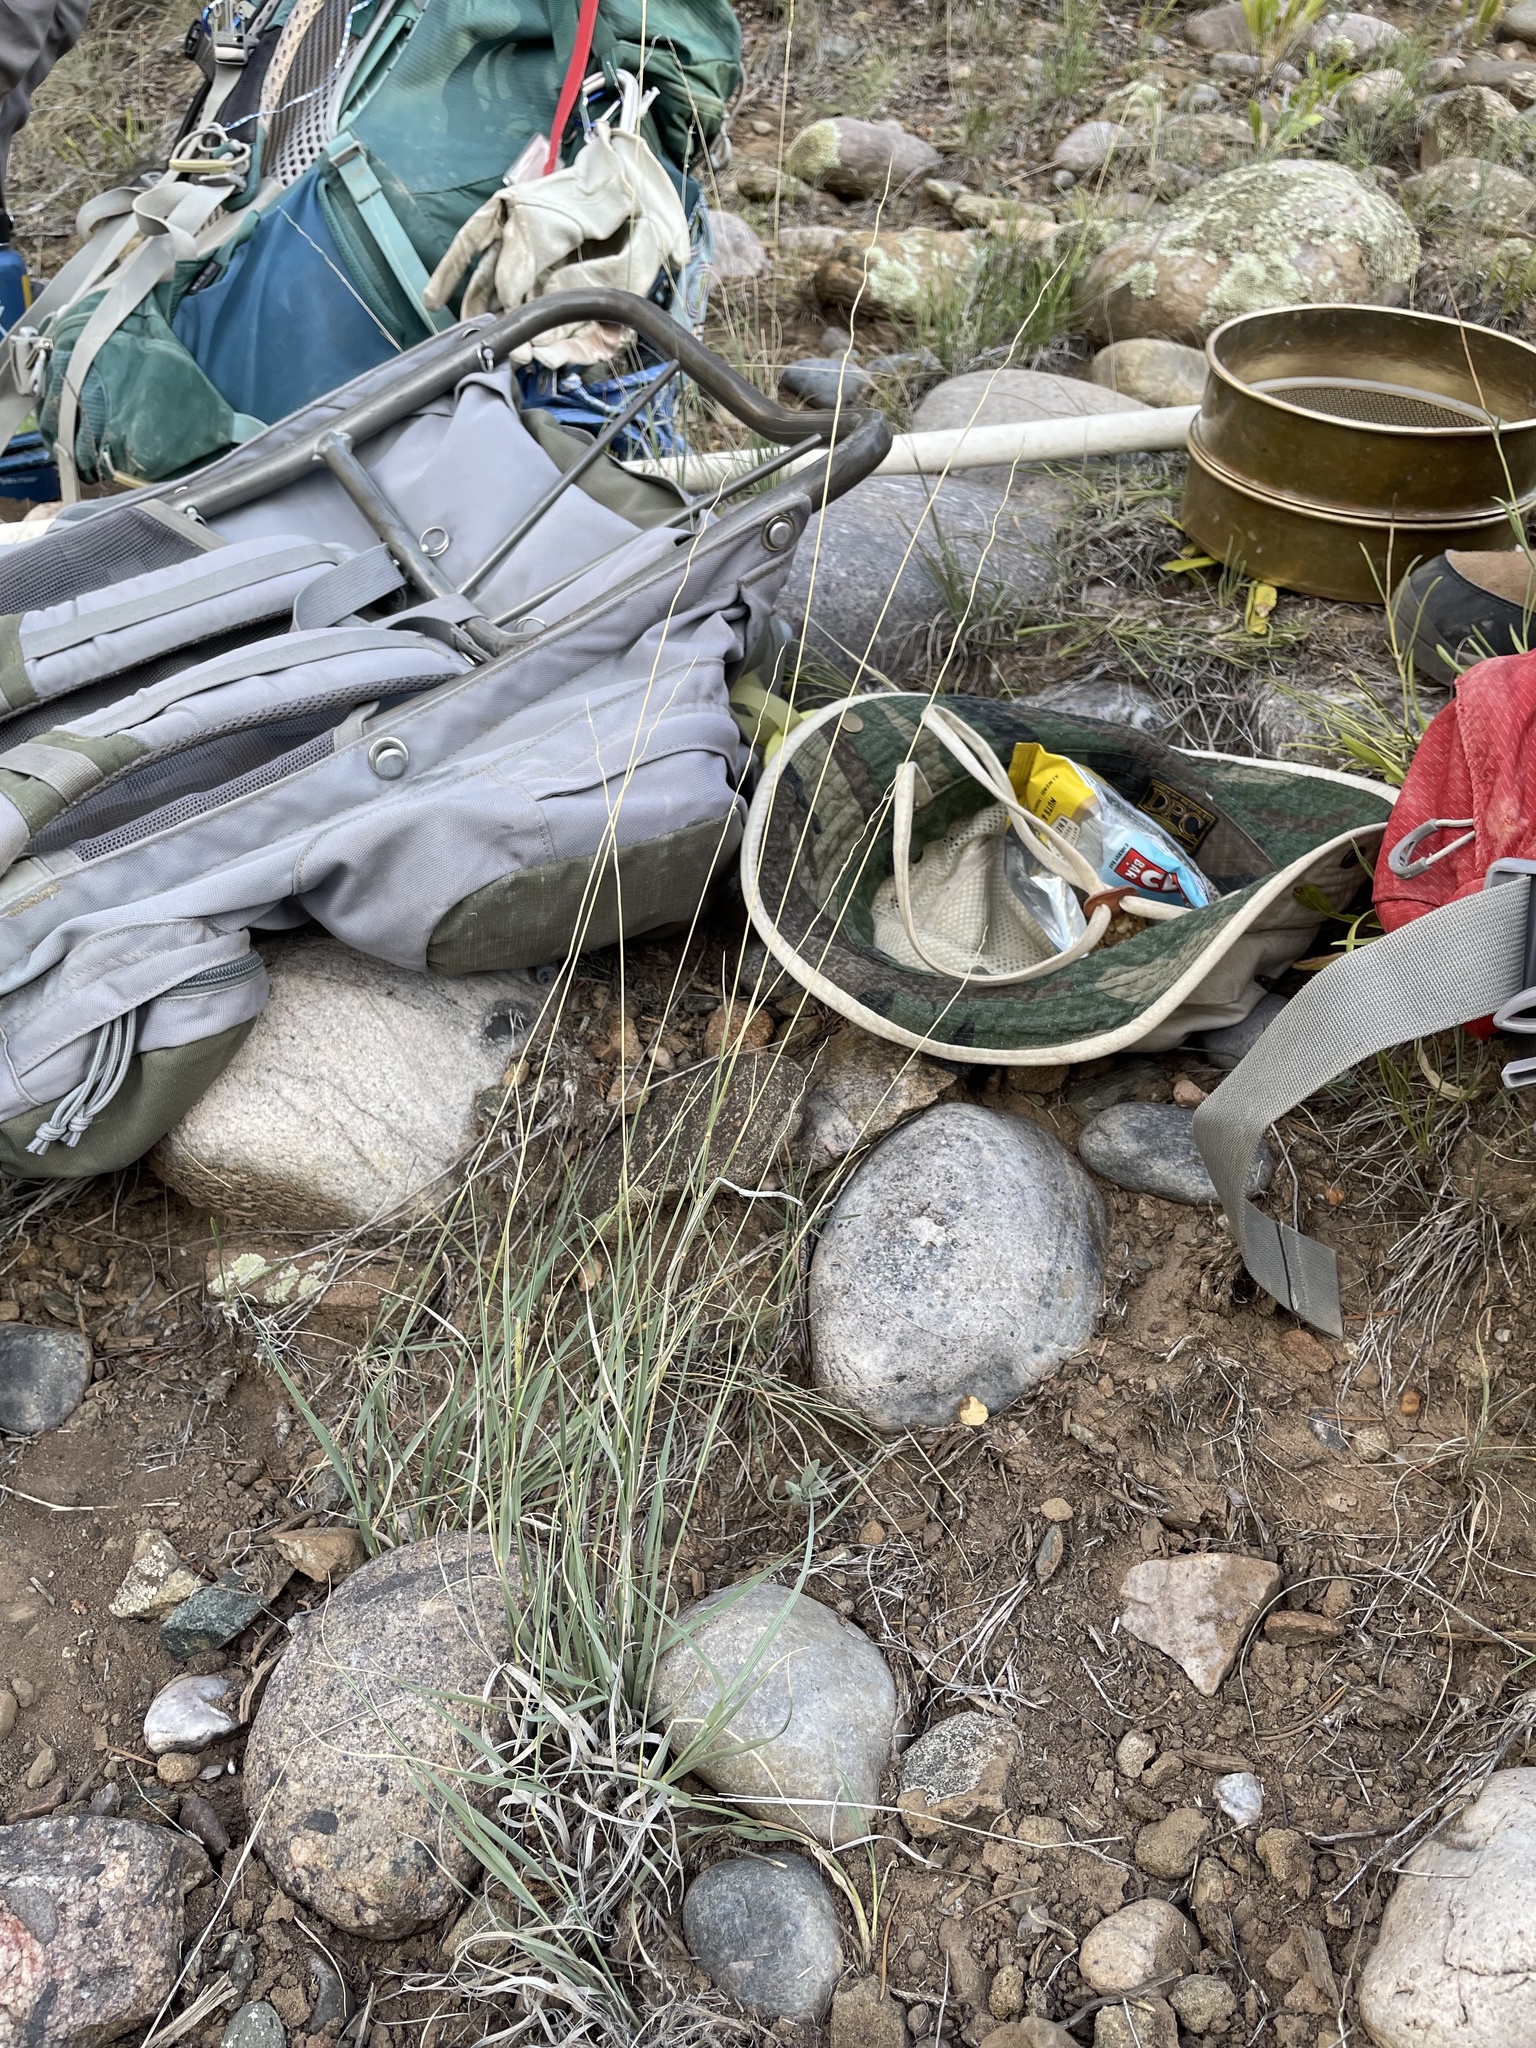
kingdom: Plantae
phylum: Tracheophyta
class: Liliopsida
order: Poales
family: Poaceae
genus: Hilaria
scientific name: Hilaria jamesii
